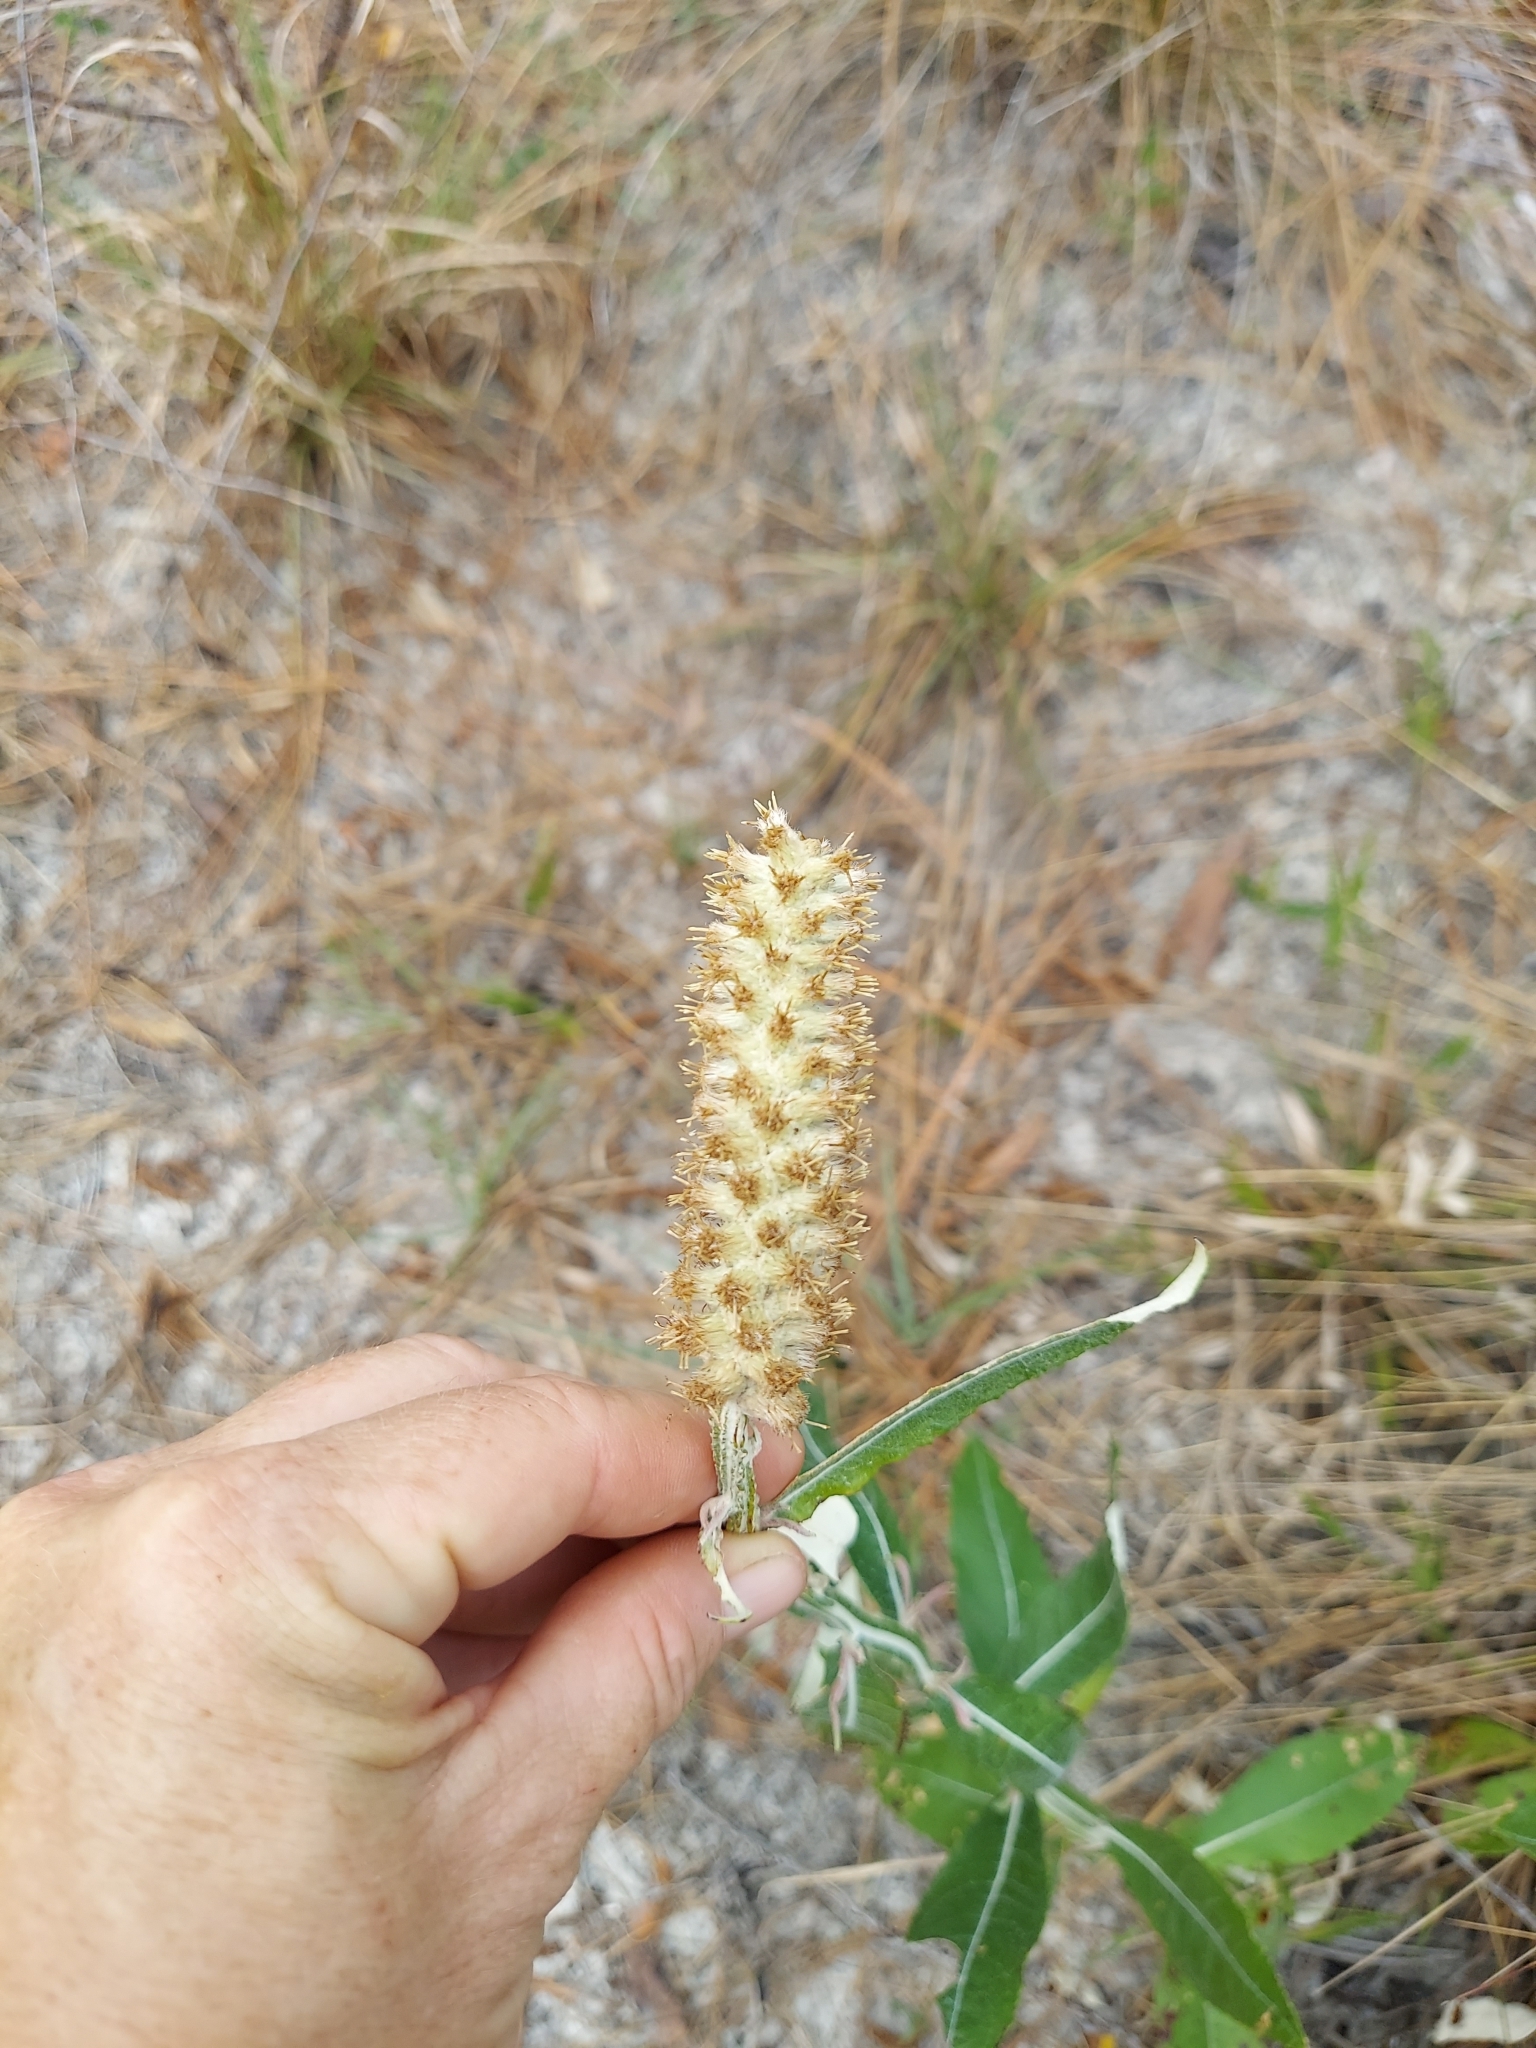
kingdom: Plantae
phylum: Tracheophyta
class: Magnoliopsida
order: Asterales
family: Asteraceae
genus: Pterocaulon
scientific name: Pterocaulon pycnostachyum
